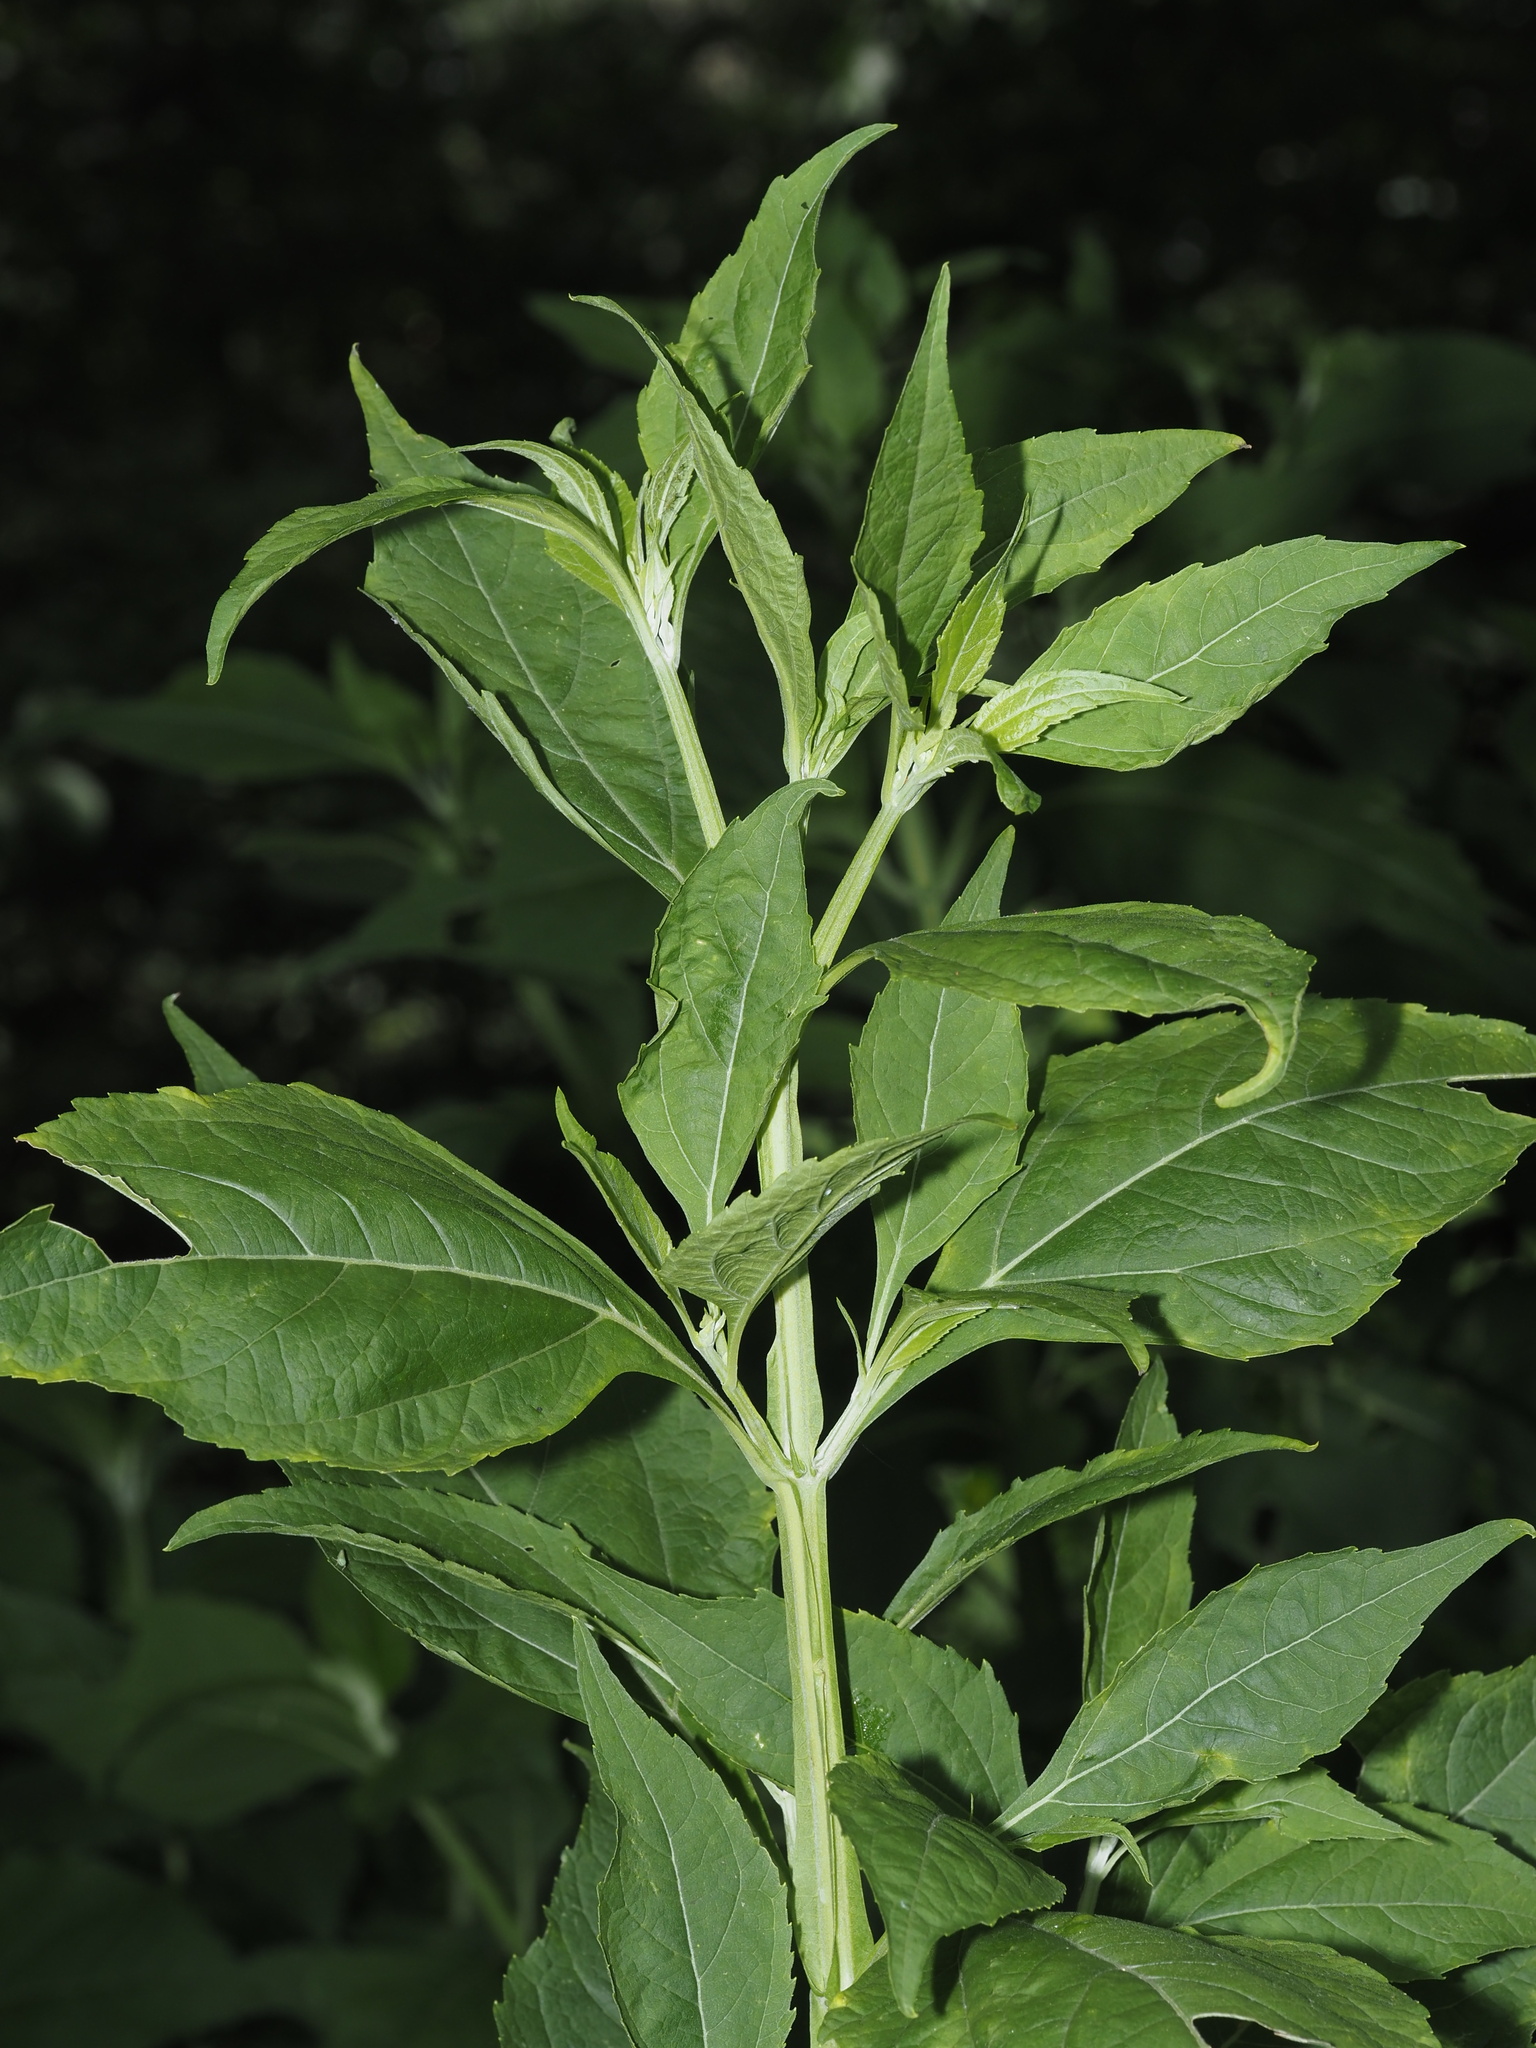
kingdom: Plantae
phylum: Tracheophyta
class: Magnoliopsida
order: Asterales
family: Asteraceae
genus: Verbesina
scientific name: Verbesina occidentalis
